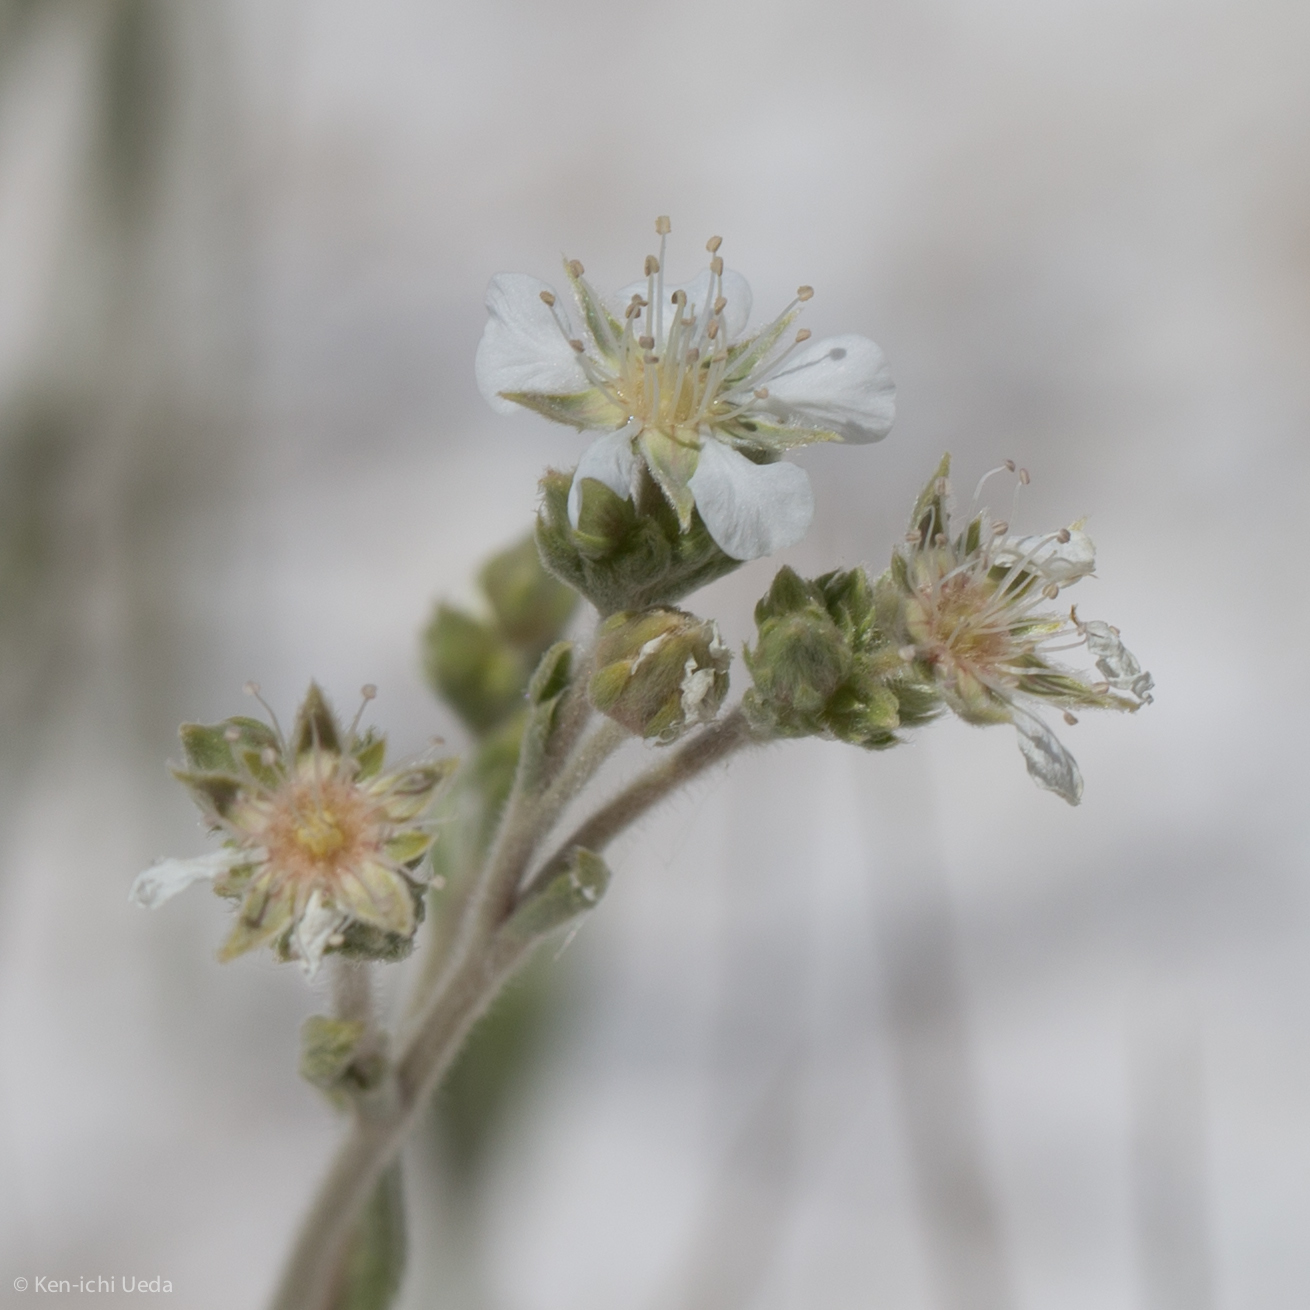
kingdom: Plantae
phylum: Tracheophyta
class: Magnoliopsida
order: Rosales
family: Rosaceae
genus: Potentilla
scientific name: Potentilla kingii
